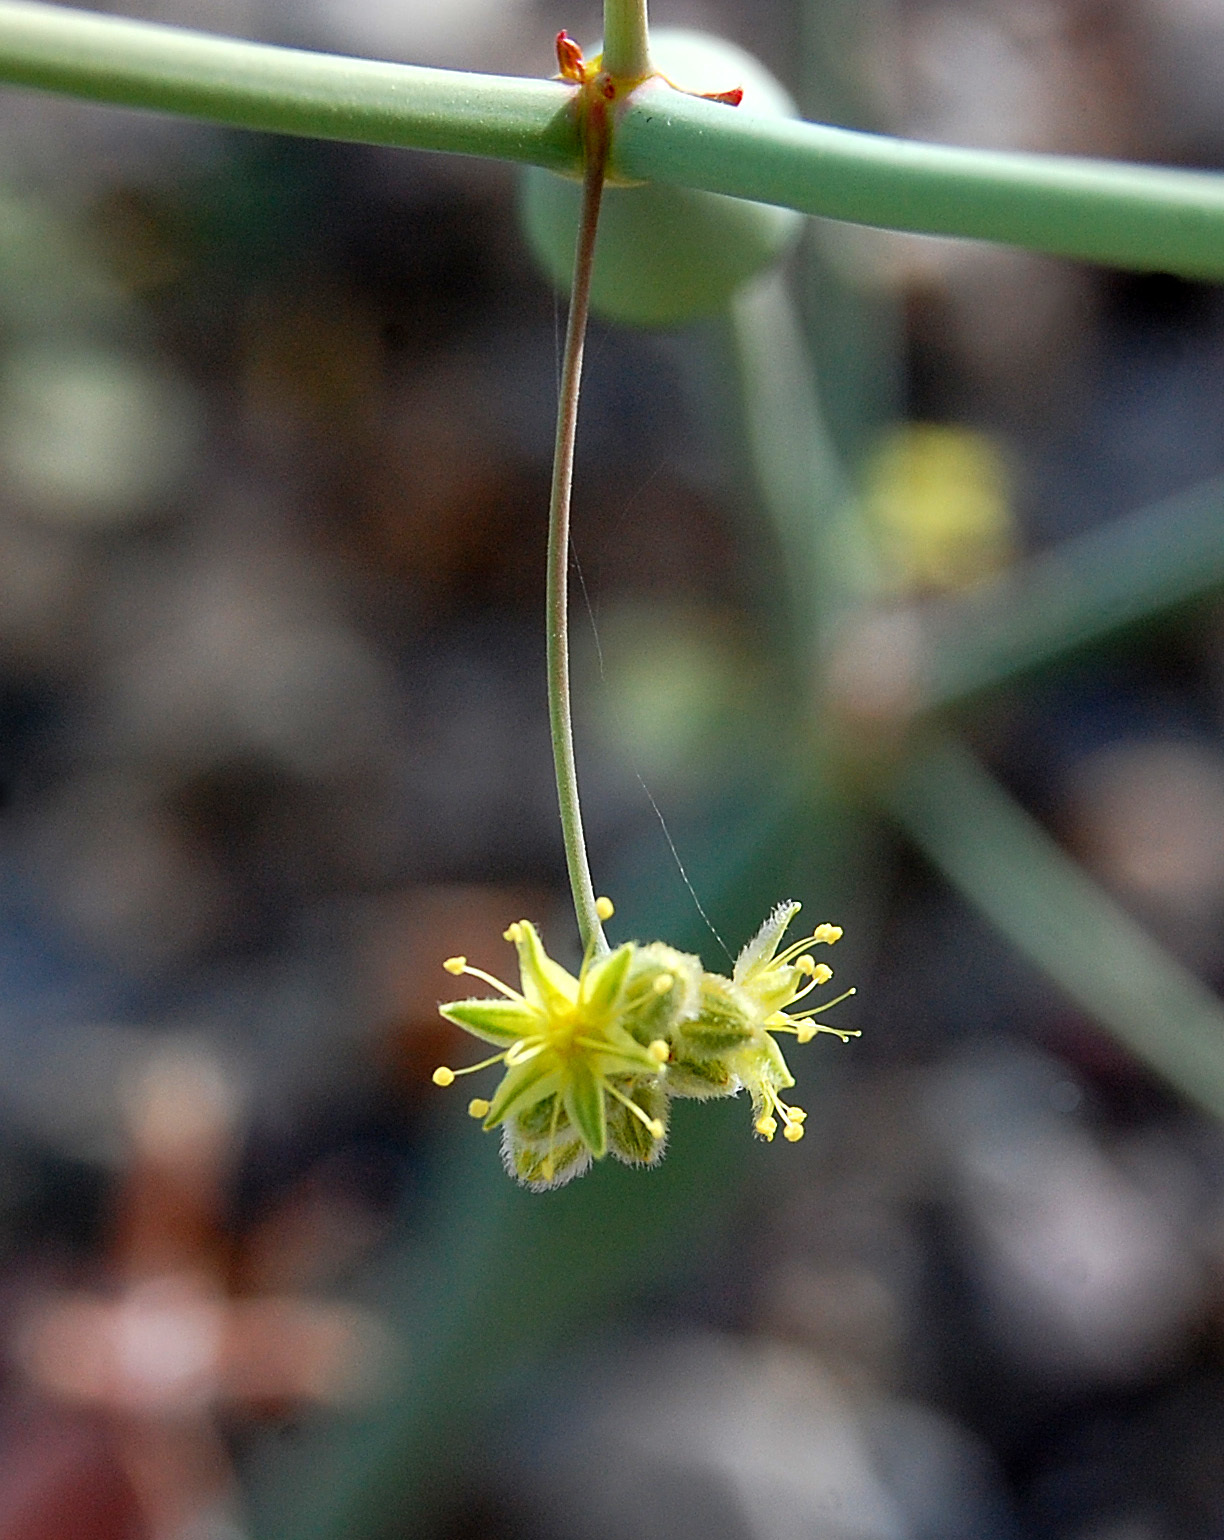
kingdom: Plantae
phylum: Tracheophyta
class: Magnoliopsida
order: Caryophyllales
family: Polygonaceae
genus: Eriogonum
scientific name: Eriogonum inflatum
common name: Desert trumpet
